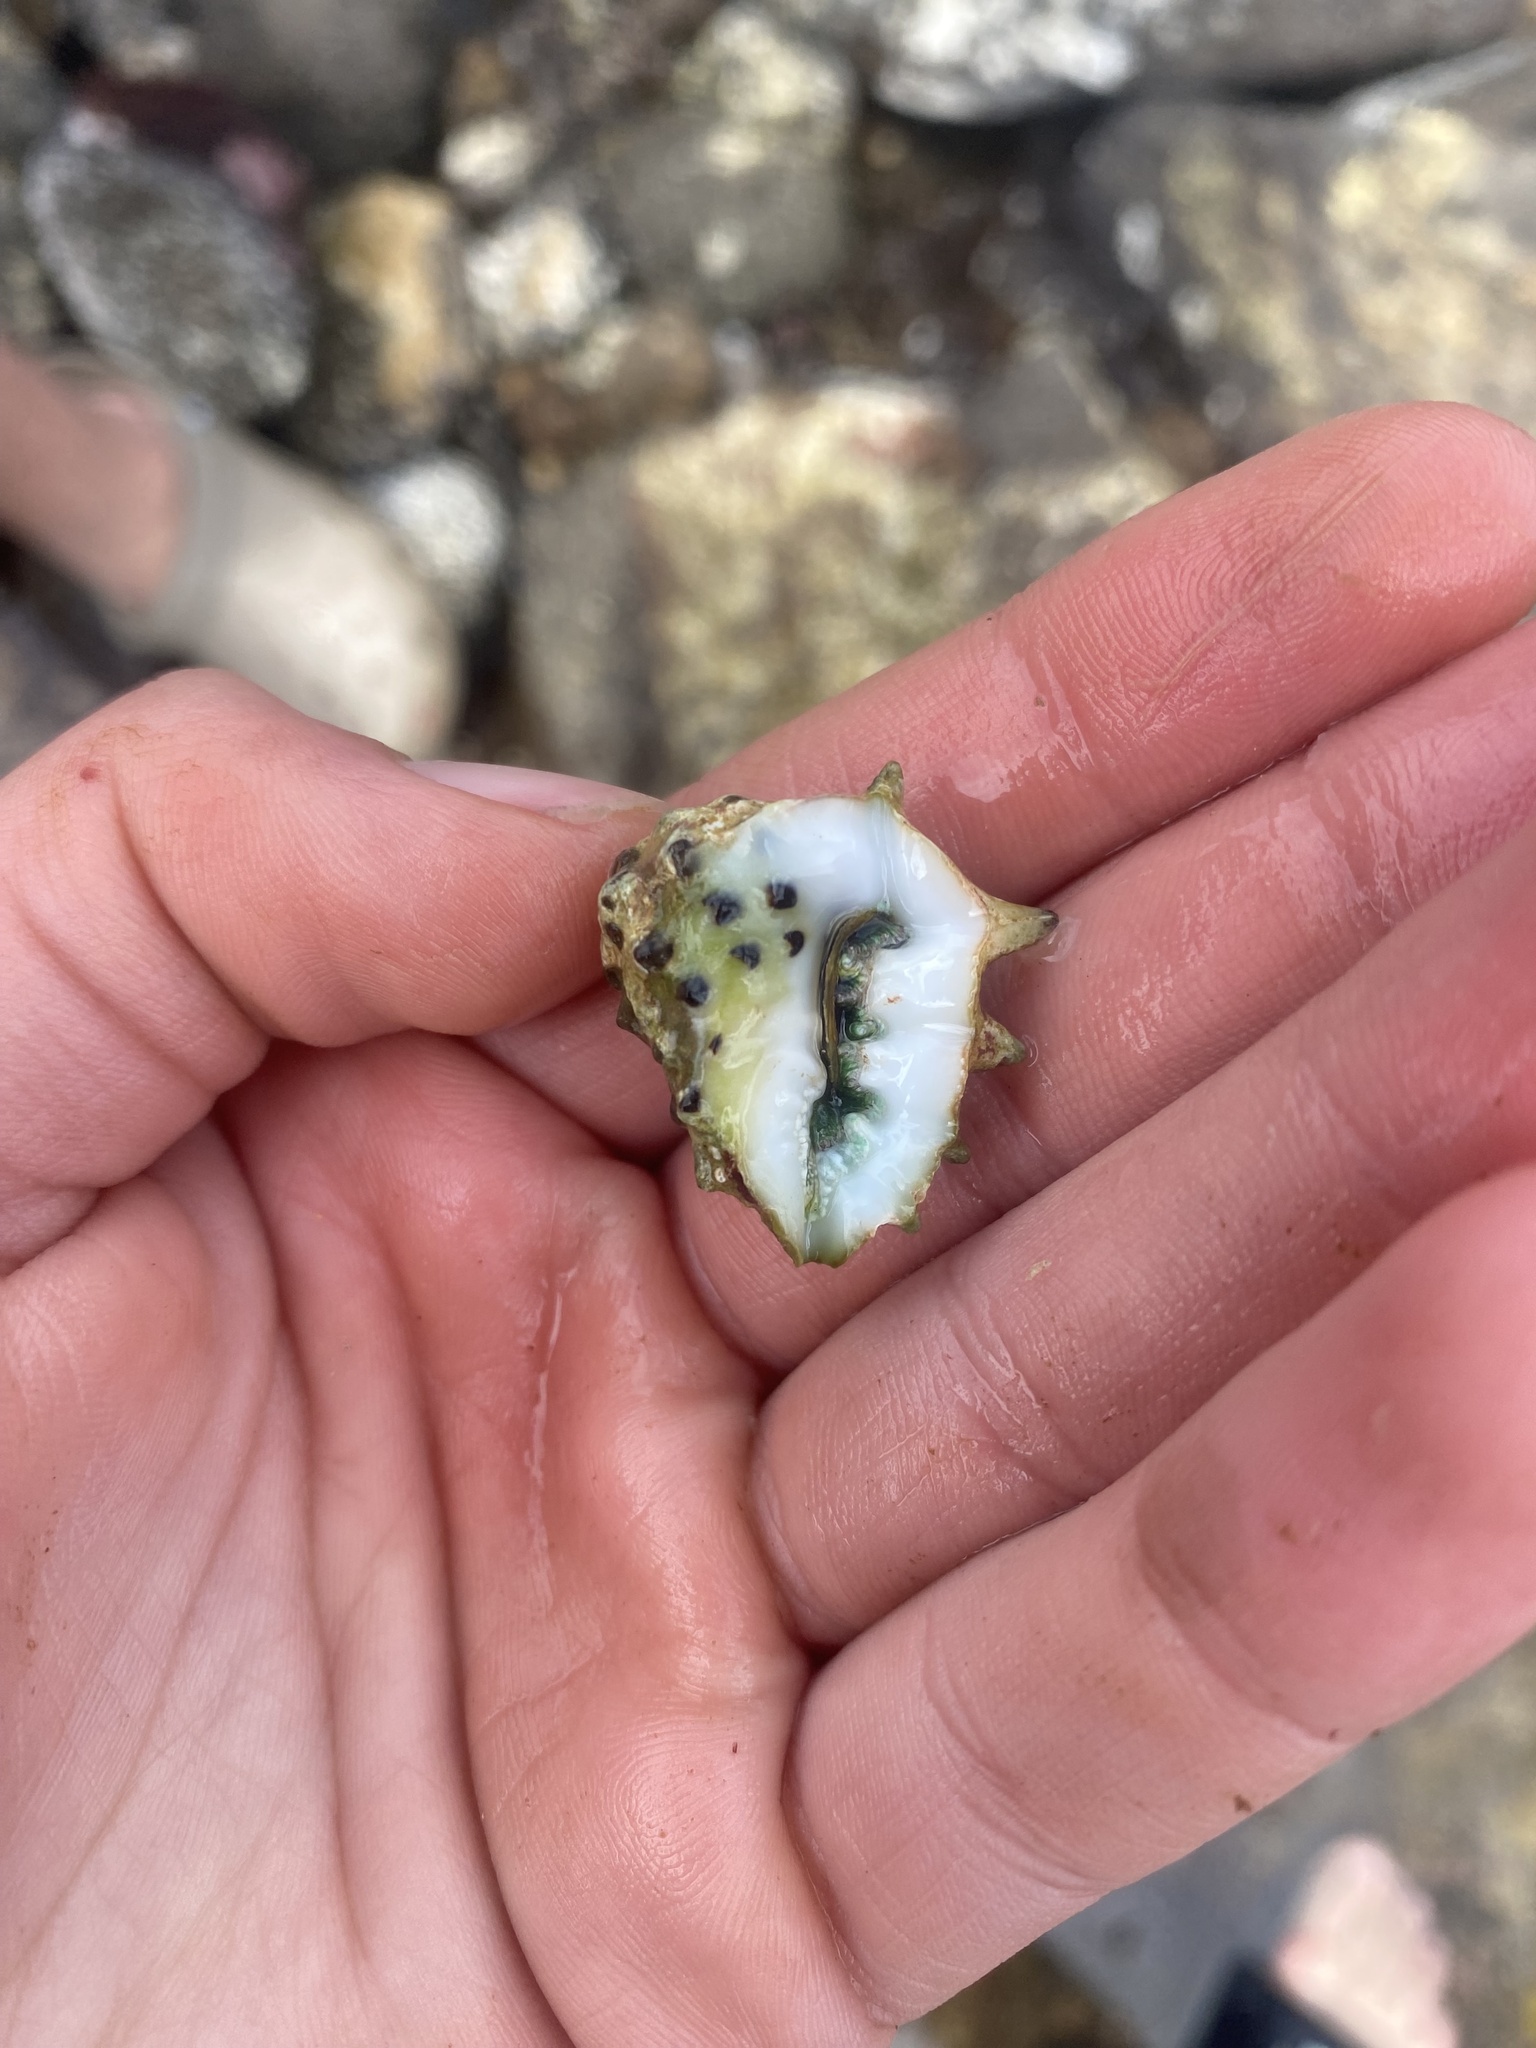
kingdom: Animalia
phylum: Mollusca
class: Gastropoda
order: Neogastropoda
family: Muricidae
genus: Drupa
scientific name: Drupa ricinus
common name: White-lipped castor bean
